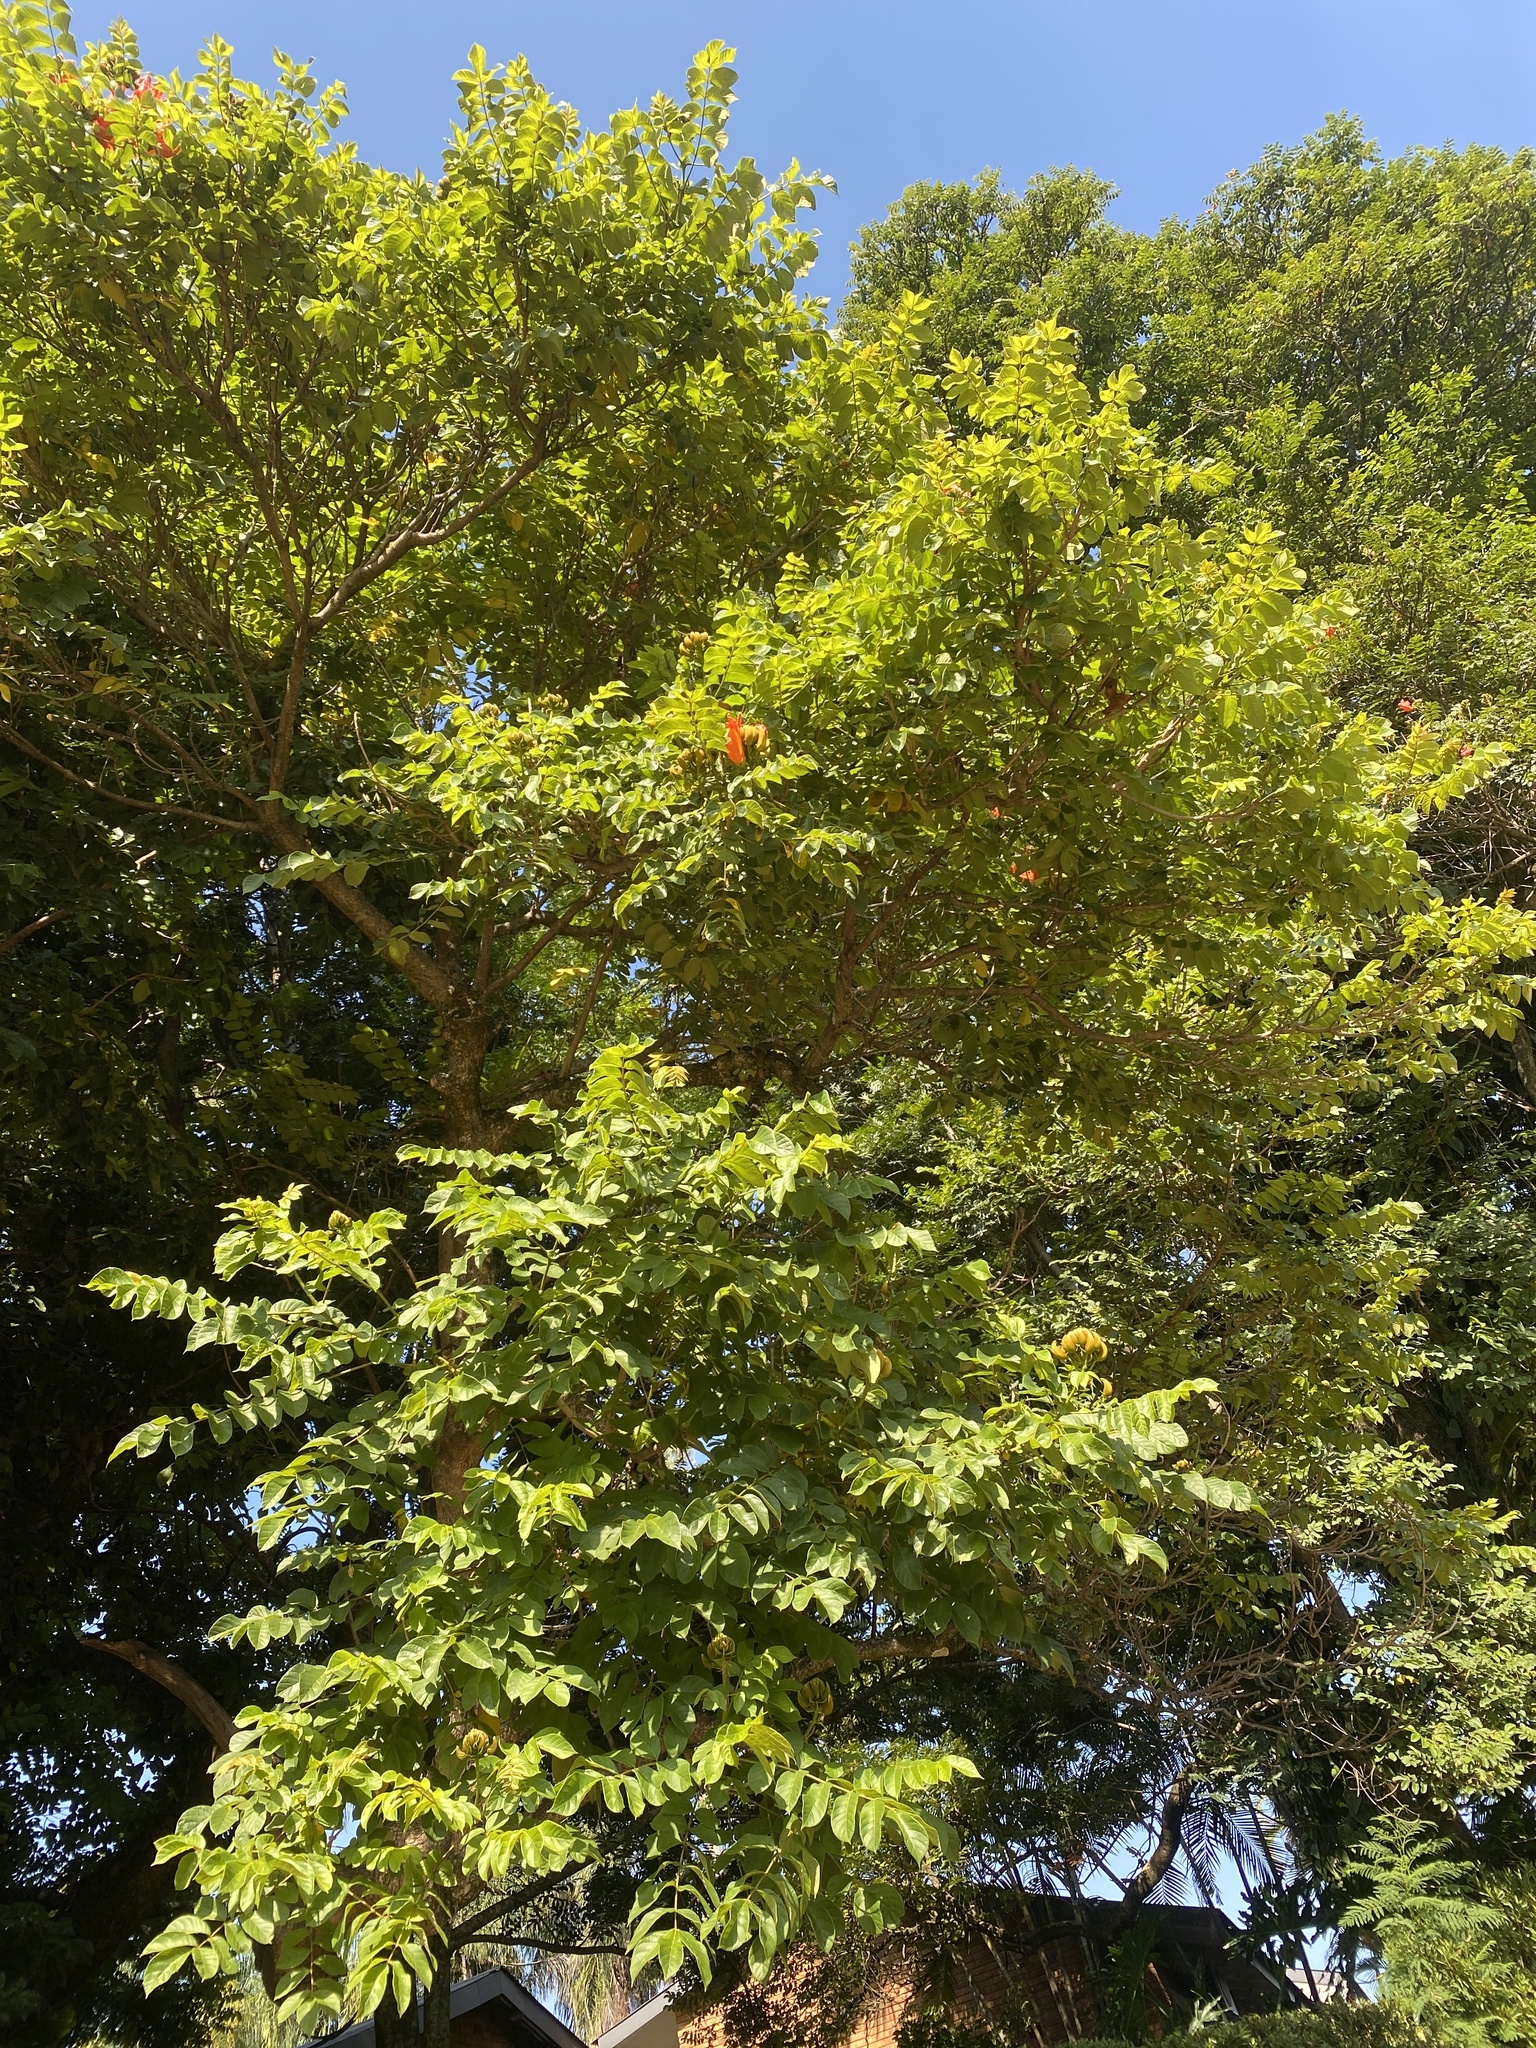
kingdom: Plantae
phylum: Tracheophyta
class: Magnoliopsida
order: Lamiales
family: Bignoniaceae
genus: Spathodea
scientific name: Spathodea campanulata
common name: African tuliptree
